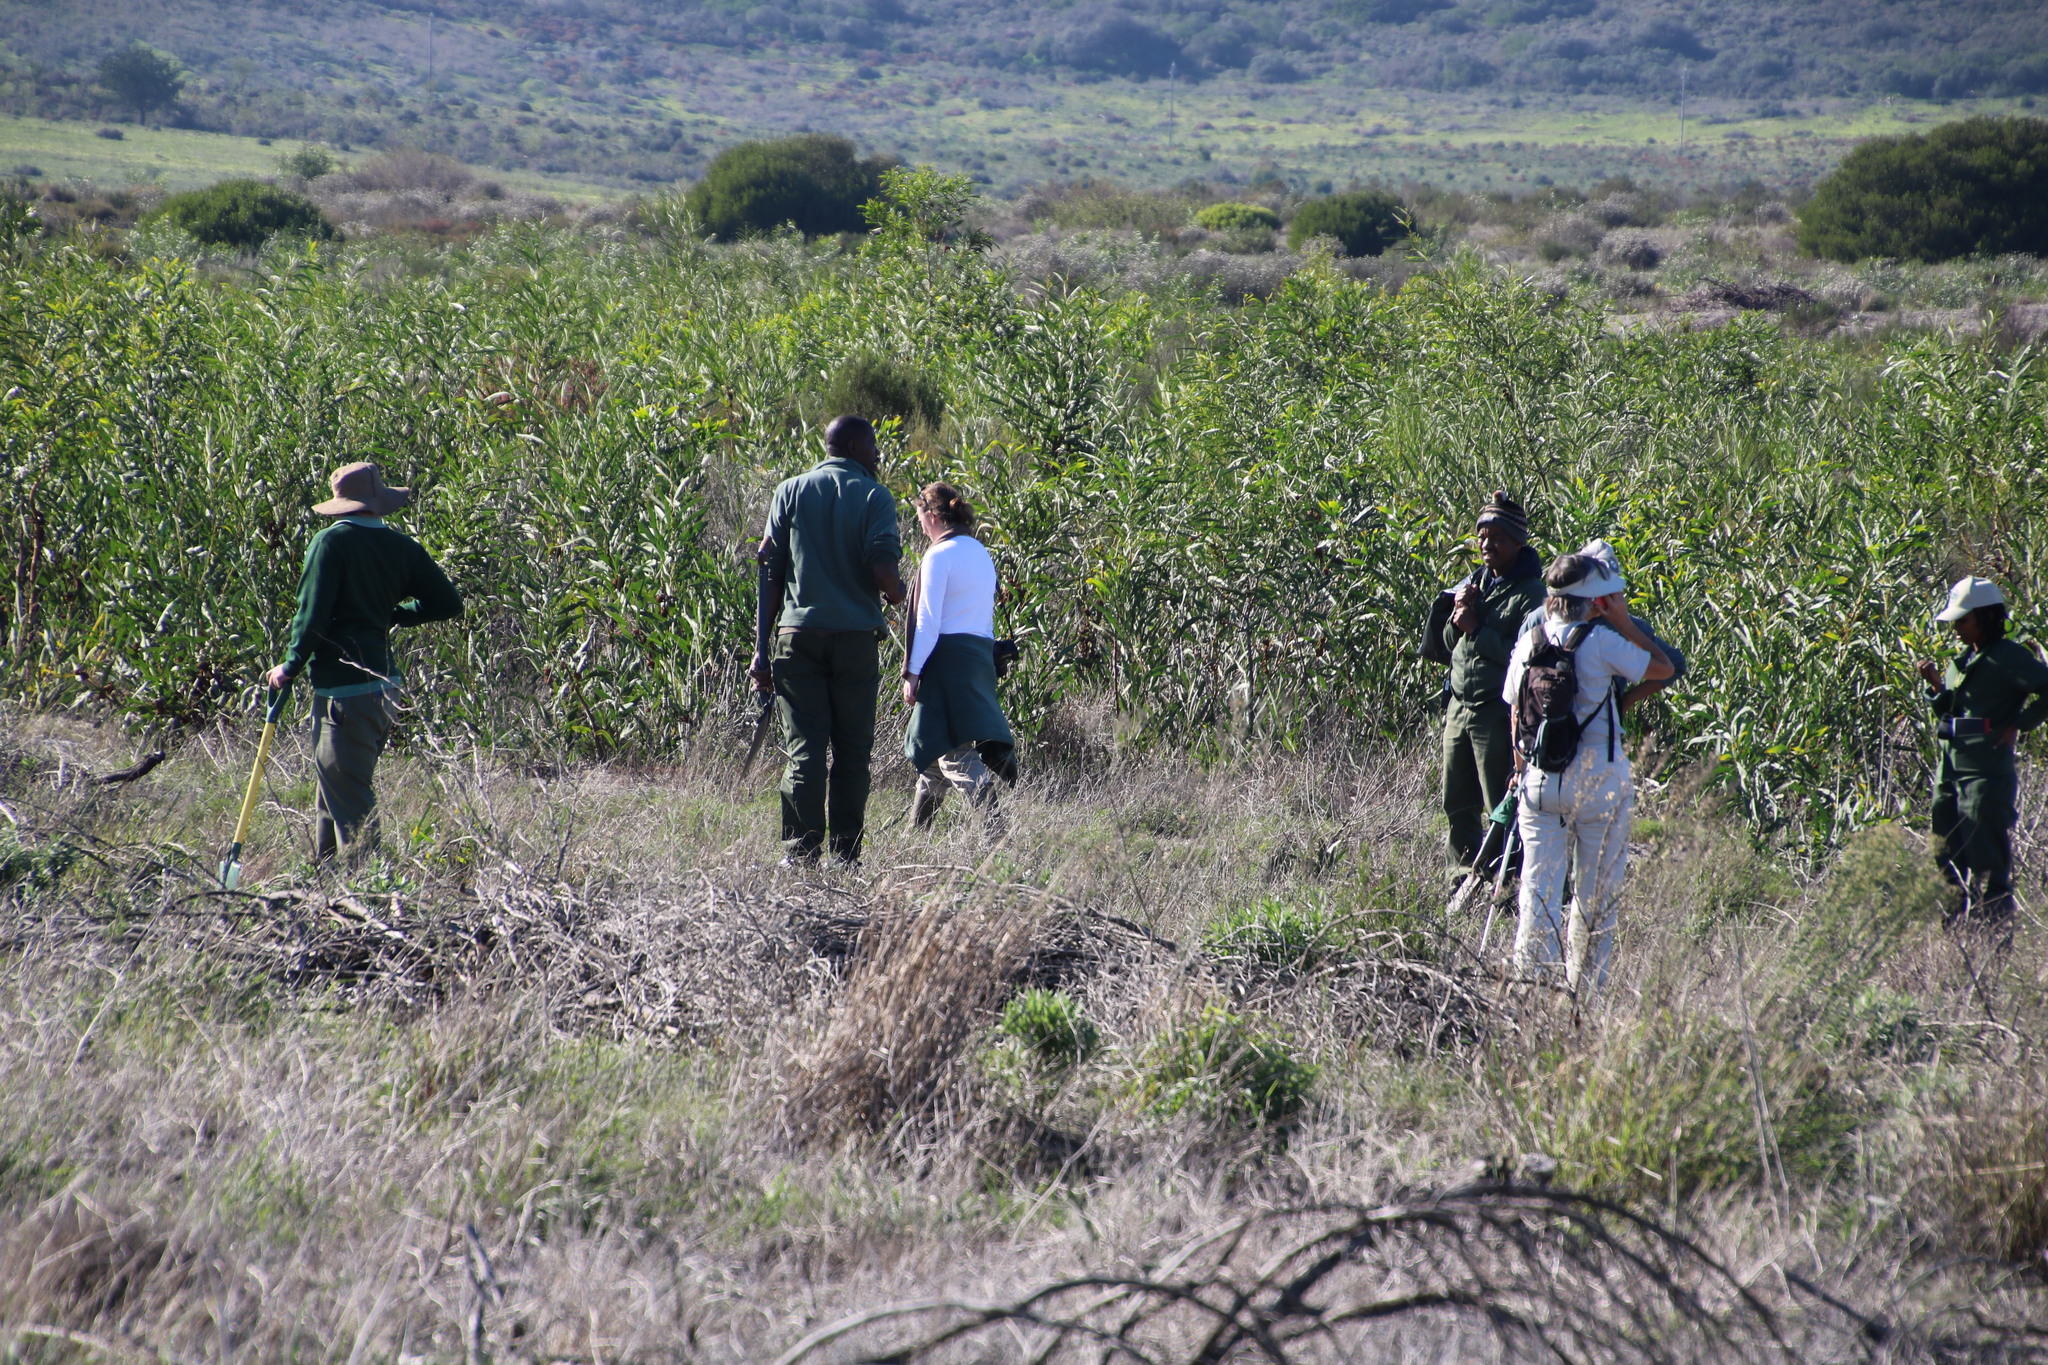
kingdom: Plantae
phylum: Tracheophyta
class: Magnoliopsida
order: Fabales
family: Fabaceae
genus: Acacia
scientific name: Acacia saligna
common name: Orange wattle
